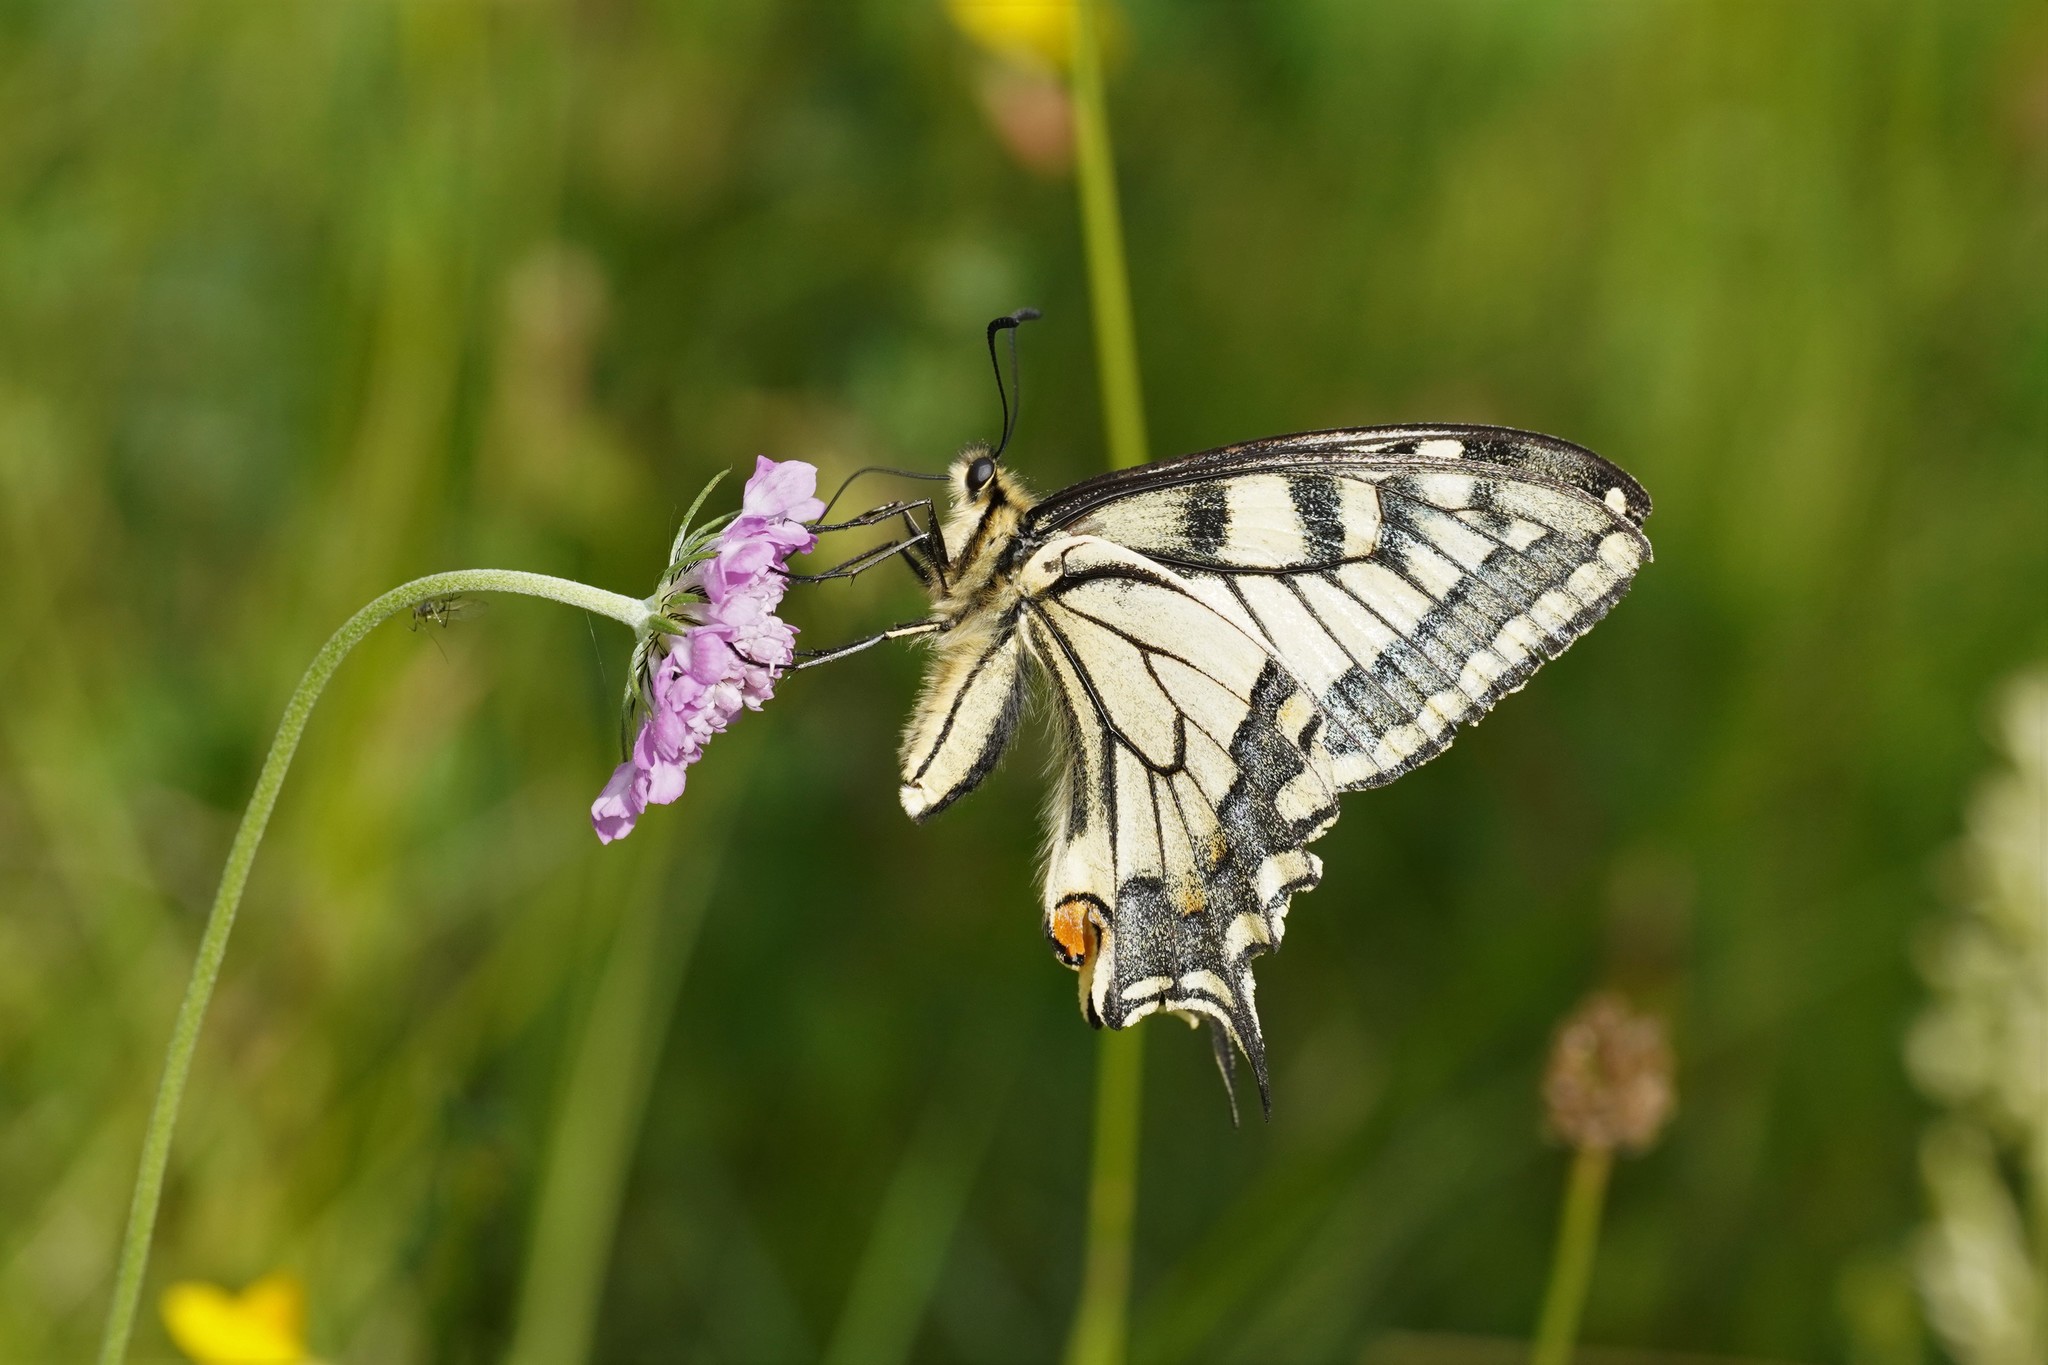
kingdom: Animalia
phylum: Arthropoda
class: Insecta
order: Lepidoptera
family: Papilionidae
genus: Papilio
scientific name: Papilio machaon
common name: Swallowtail
